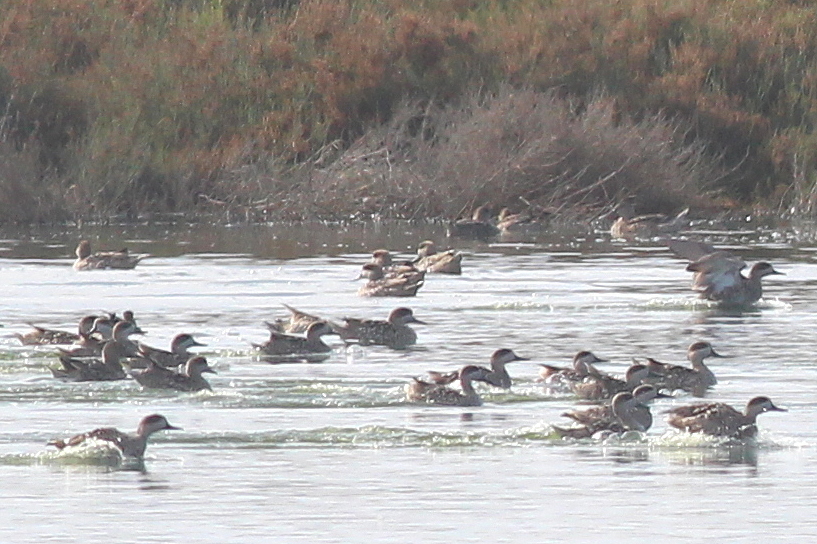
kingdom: Animalia
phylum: Chordata
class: Aves
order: Anseriformes
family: Anatidae
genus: Marmaronetta
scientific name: Marmaronetta angustirostris
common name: Marbled duck
